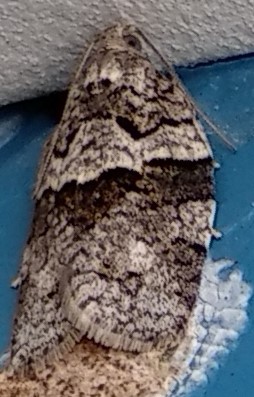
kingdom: Animalia
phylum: Arthropoda
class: Insecta
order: Lepidoptera
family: Tortricidae
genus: Syndemis
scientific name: Syndemis afflictana
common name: Gray leafroller moth
